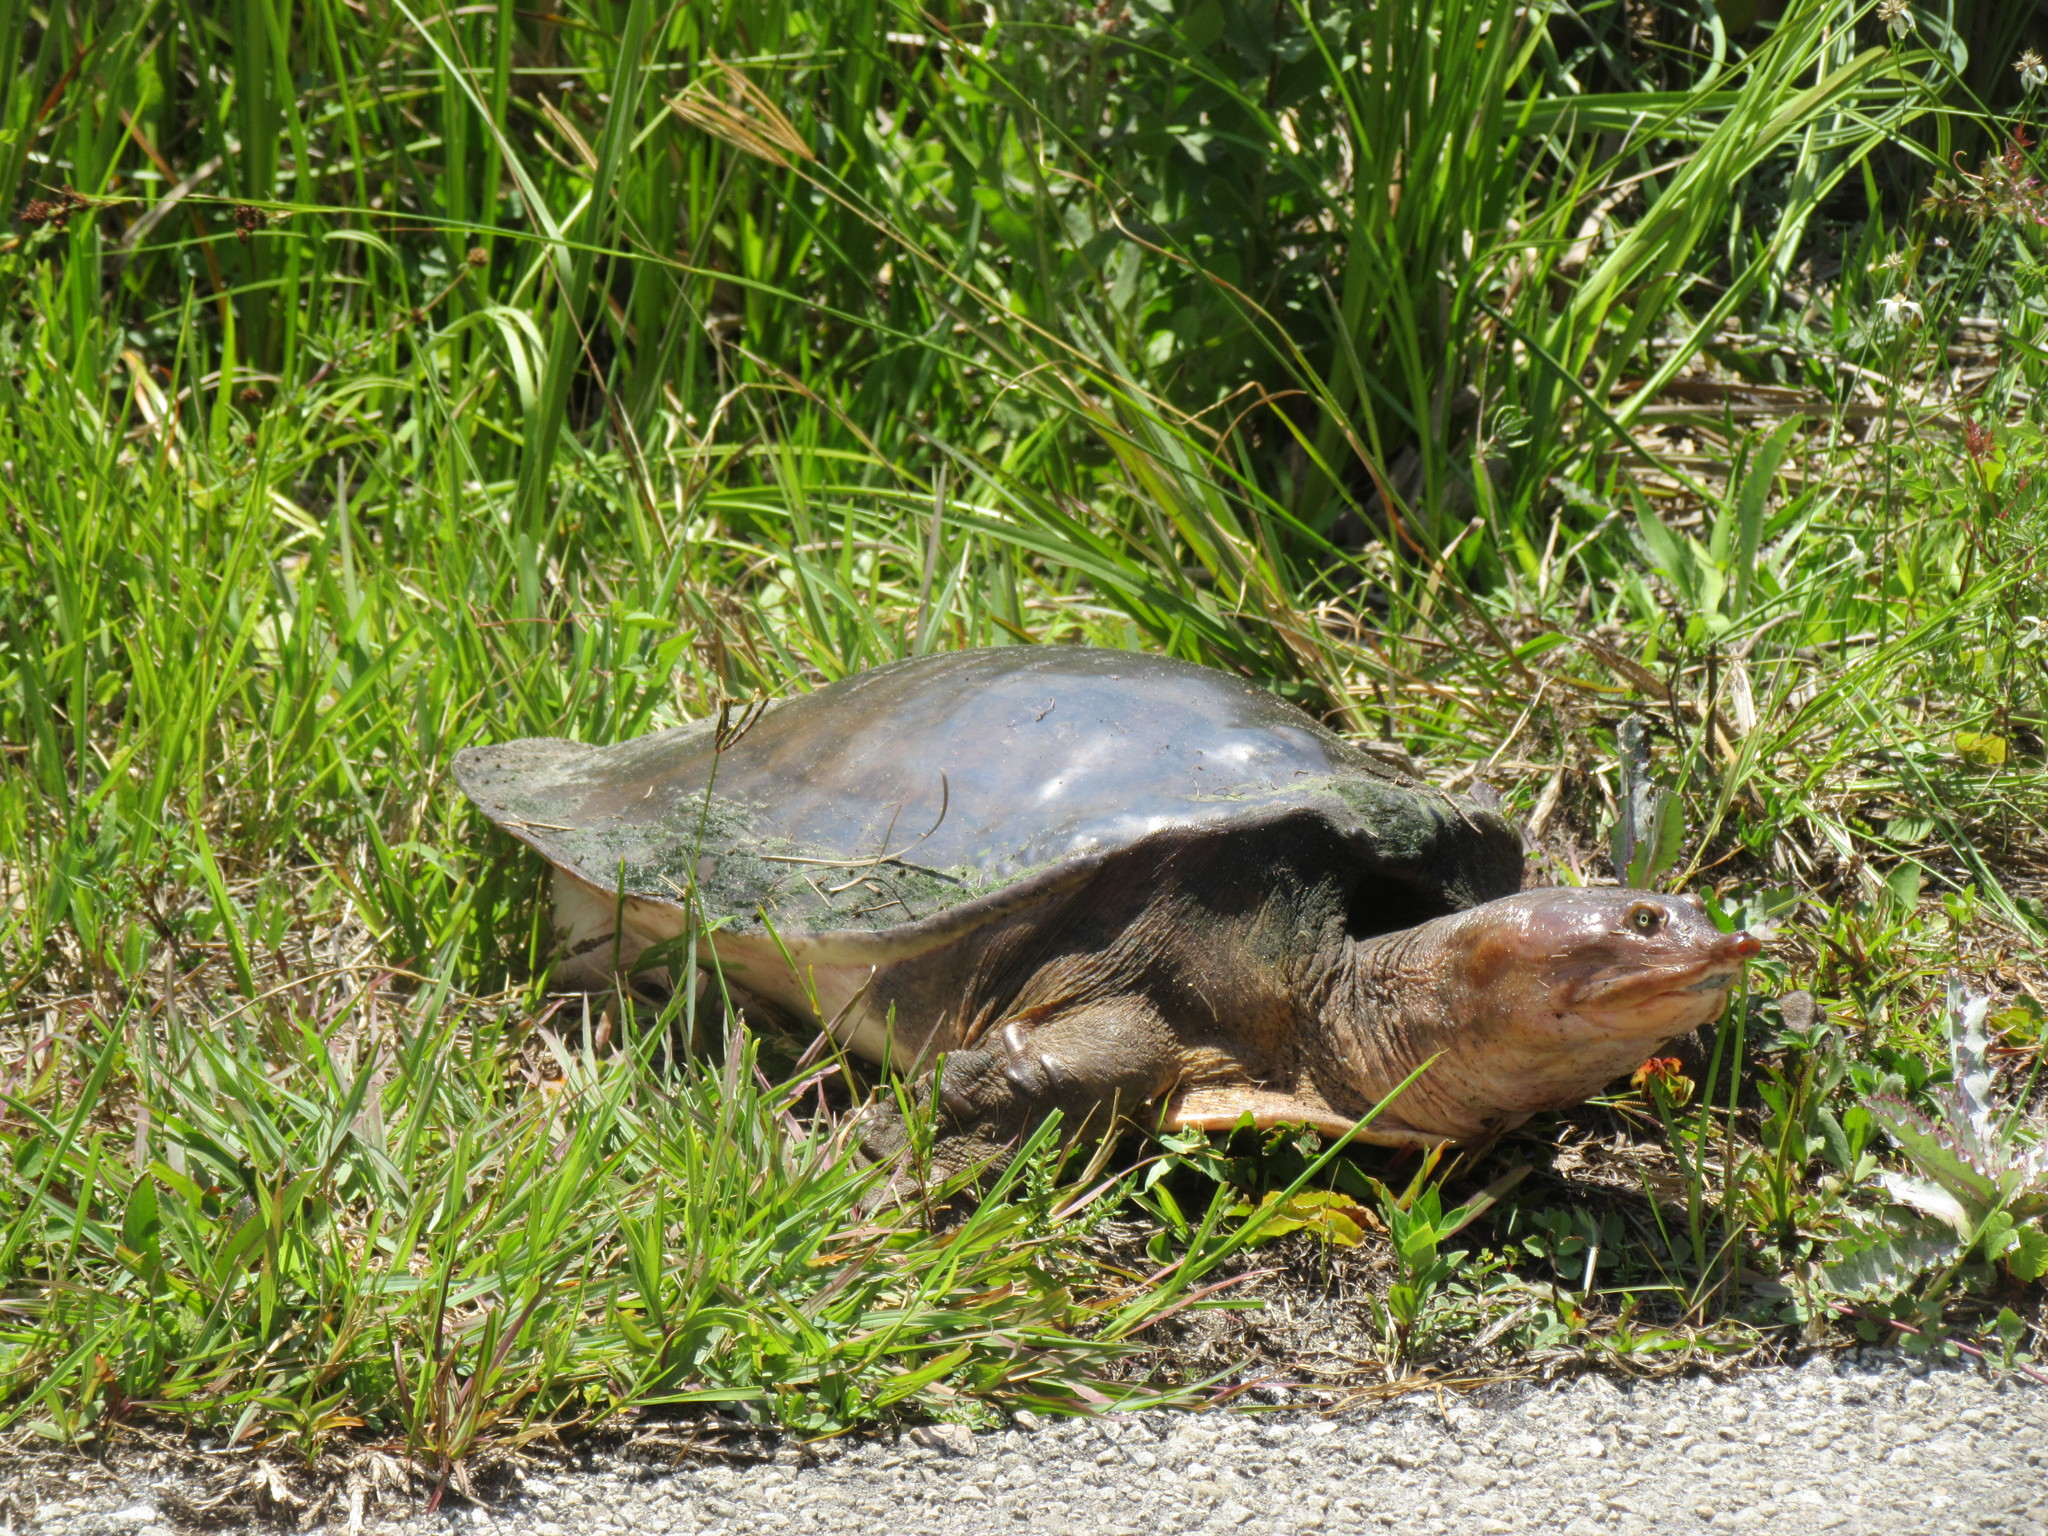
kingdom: Animalia
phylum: Chordata
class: Testudines
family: Trionychidae
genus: Apalone
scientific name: Apalone ferox
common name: Florida softshell turtle
